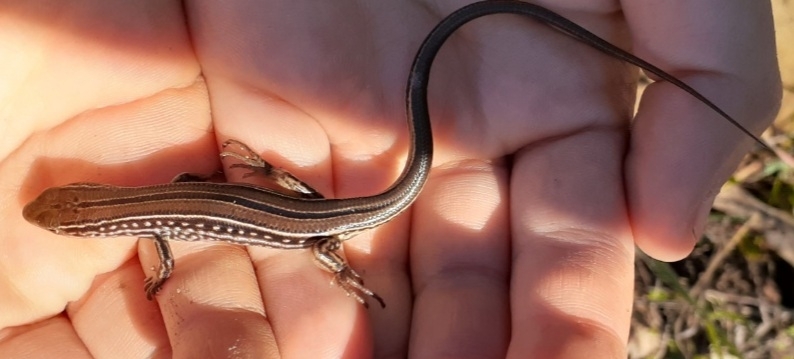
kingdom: Animalia
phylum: Chordata
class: Squamata
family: Scincidae
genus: Ctenotus
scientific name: Ctenotus robustus
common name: Robust ctenotus
